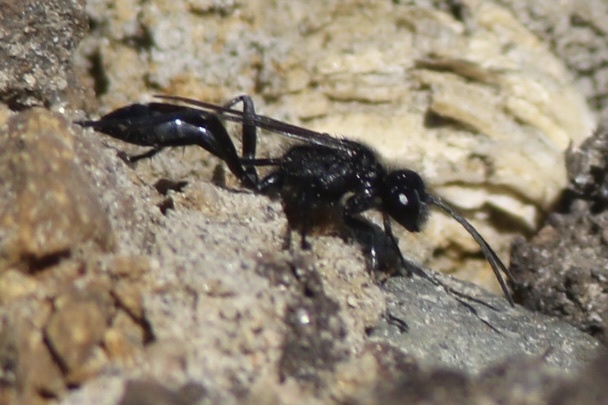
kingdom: Animalia
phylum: Arthropoda
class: Insecta
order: Hymenoptera
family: Sphecidae
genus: Podalonia
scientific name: Podalonia
